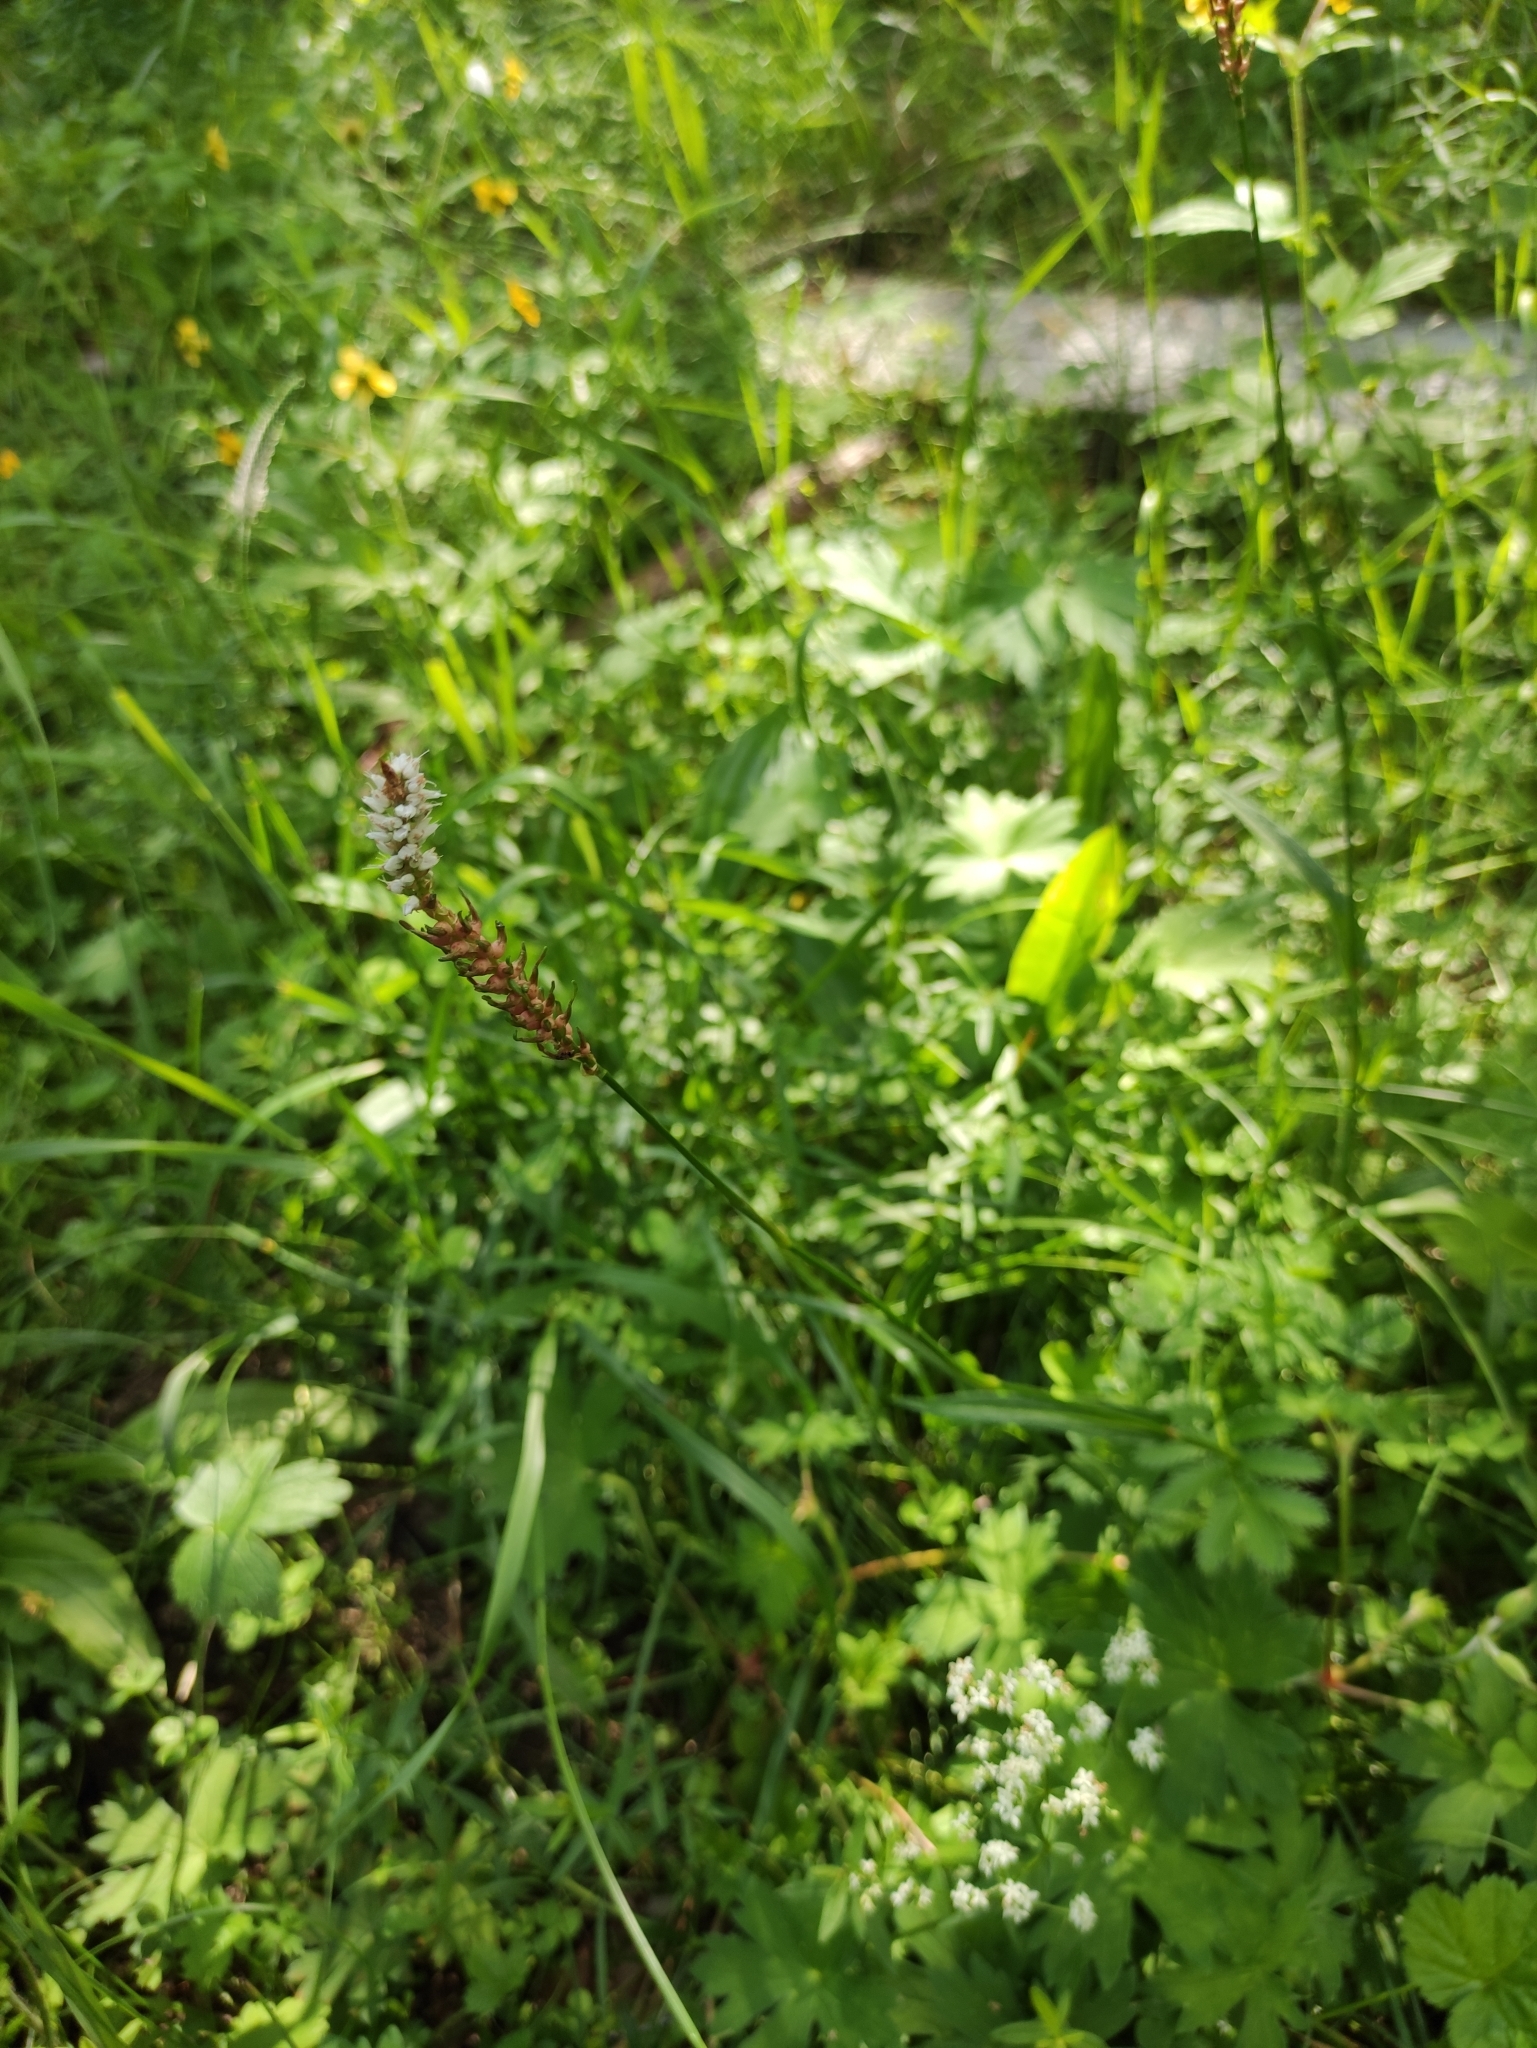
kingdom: Plantae
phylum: Tracheophyta
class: Magnoliopsida
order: Caryophyllales
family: Polygonaceae
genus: Bistorta
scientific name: Bistorta vivipara
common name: Alpine bistort
